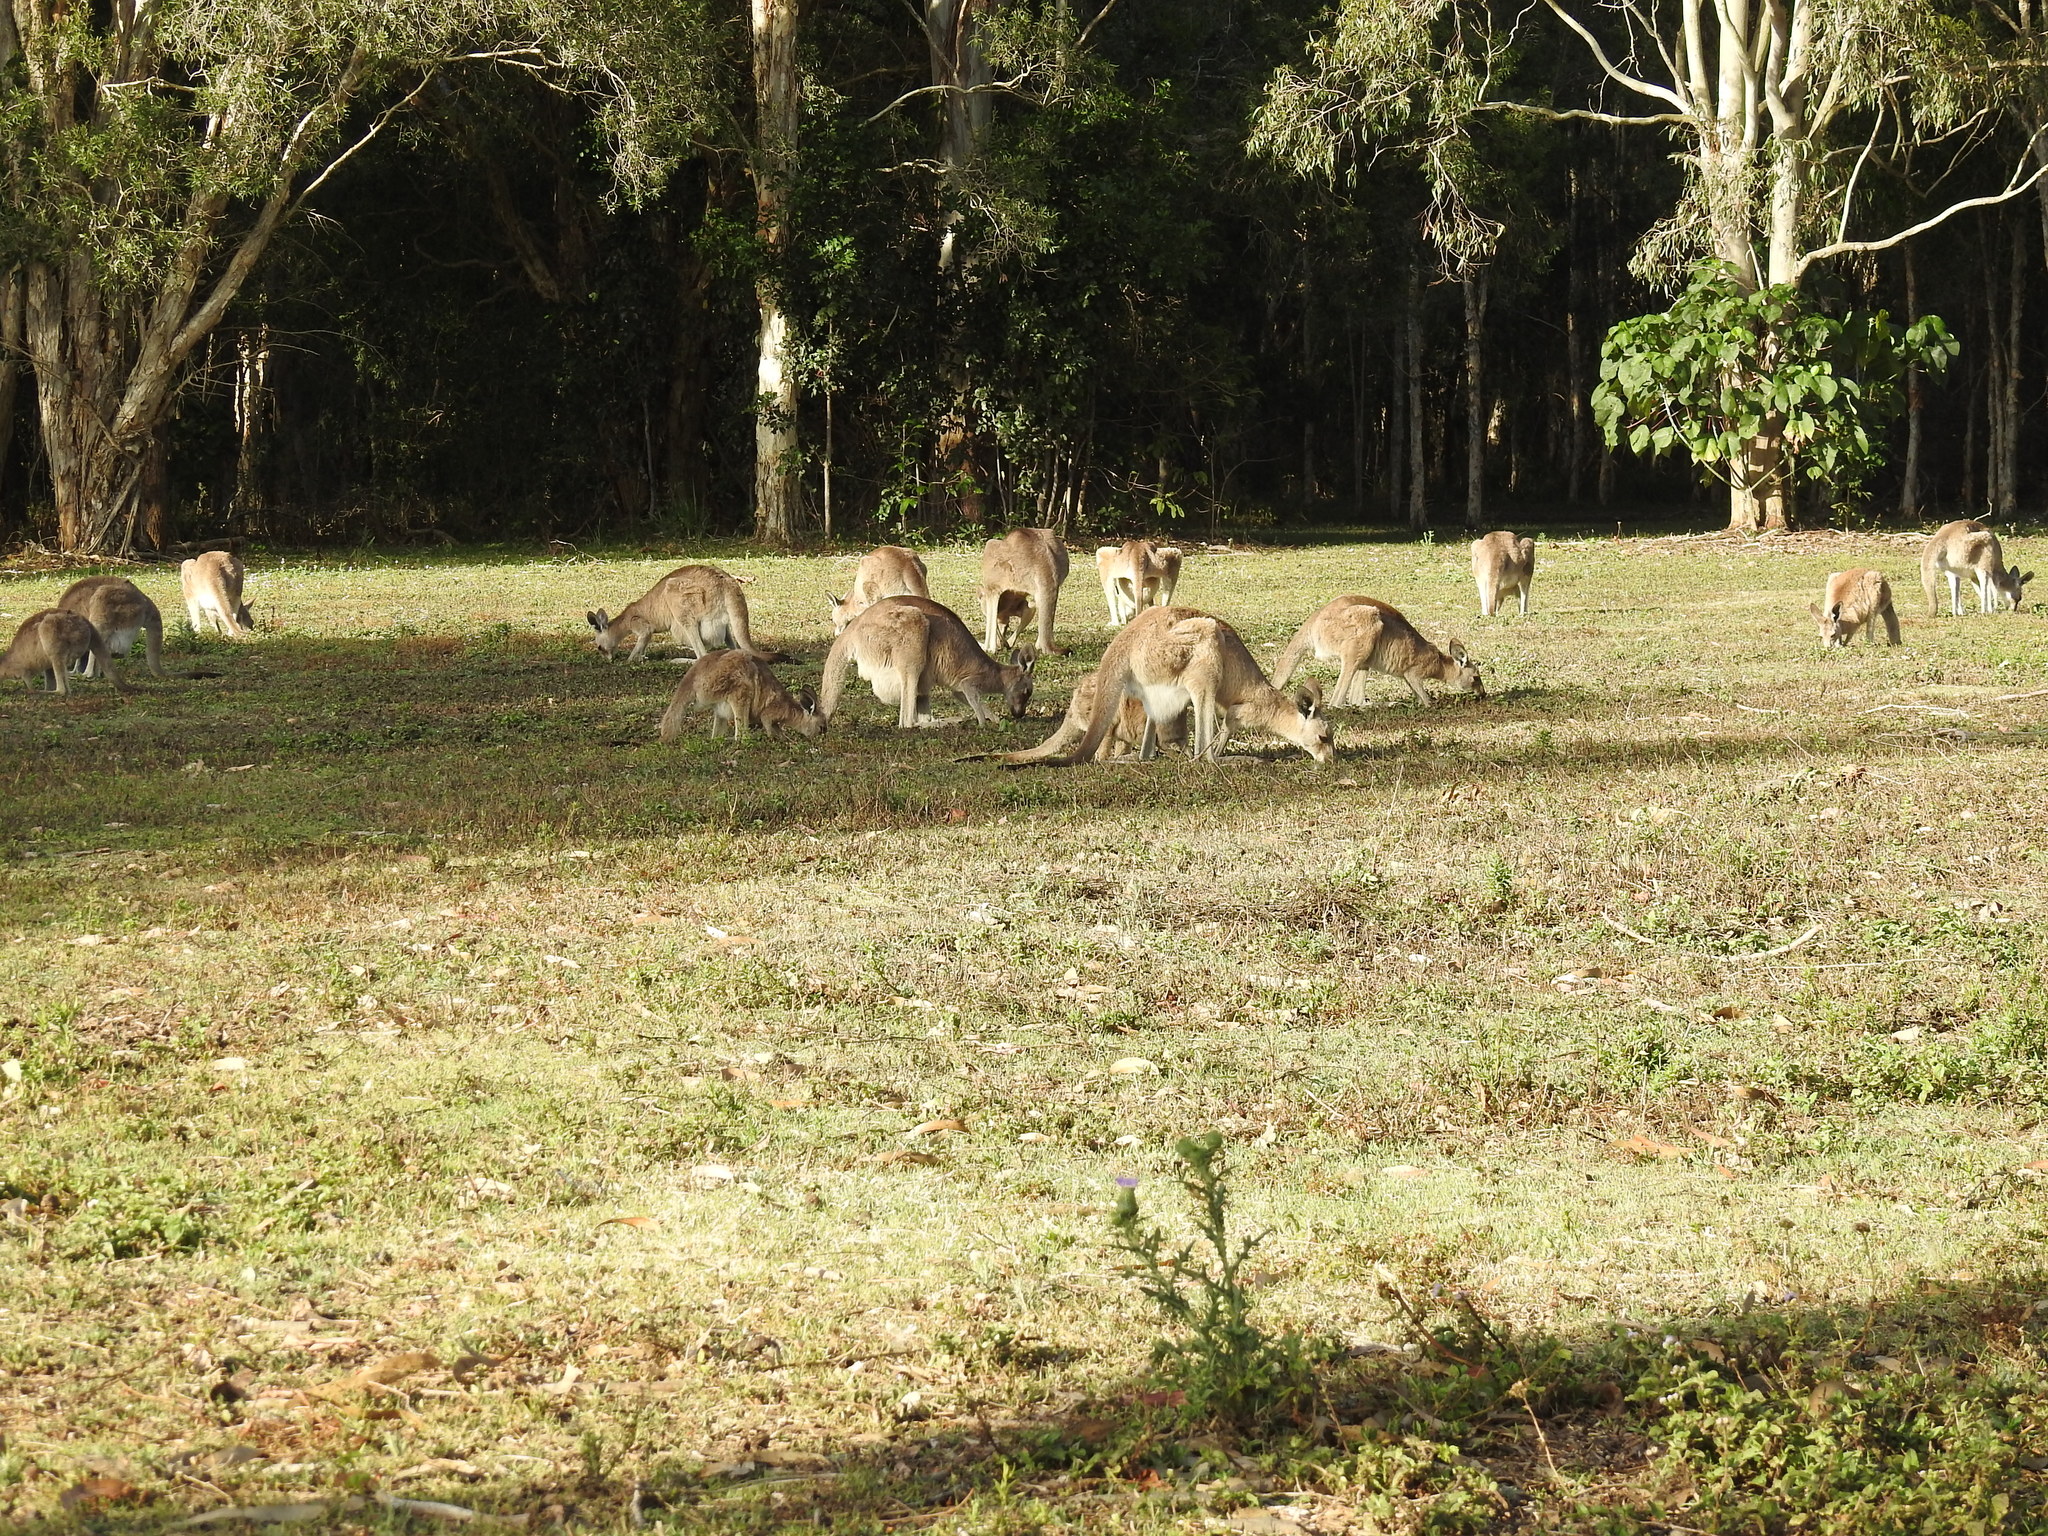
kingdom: Animalia
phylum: Chordata
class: Mammalia
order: Diprotodontia
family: Macropodidae
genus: Macropus
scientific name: Macropus giganteus
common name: Eastern grey kangaroo
